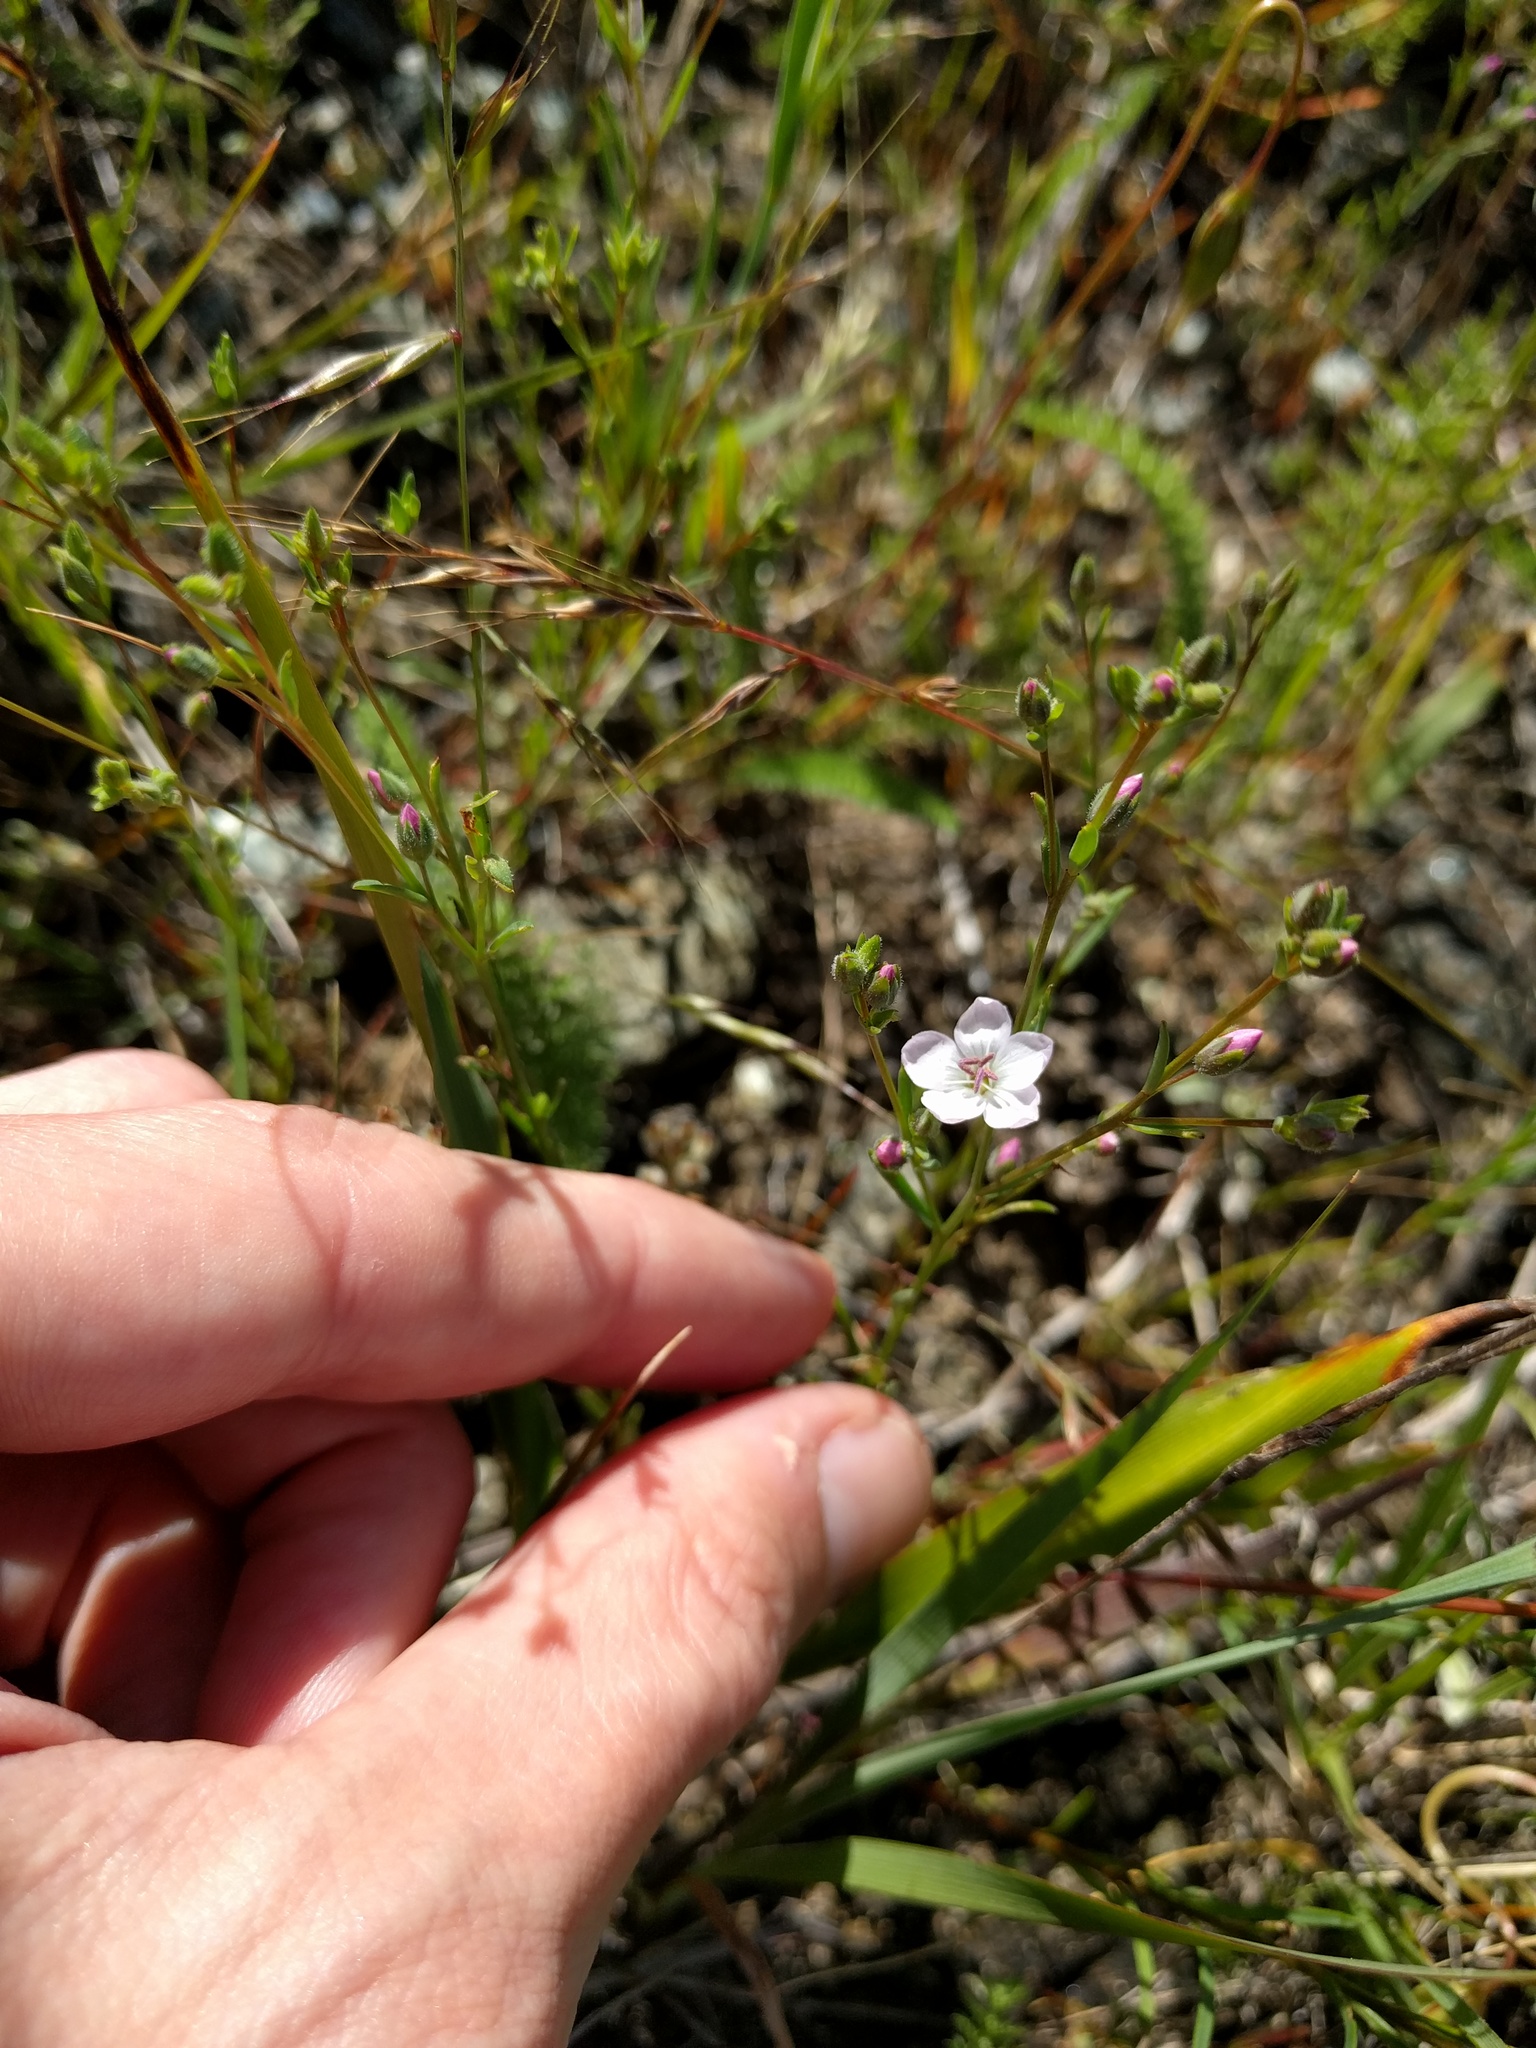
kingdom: Plantae
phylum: Tracheophyta
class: Magnoliopsida
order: Malpighiales
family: Linaceae
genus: Hesperolinon
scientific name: Hesperolinon congestum
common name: Marin dwarf-flax
